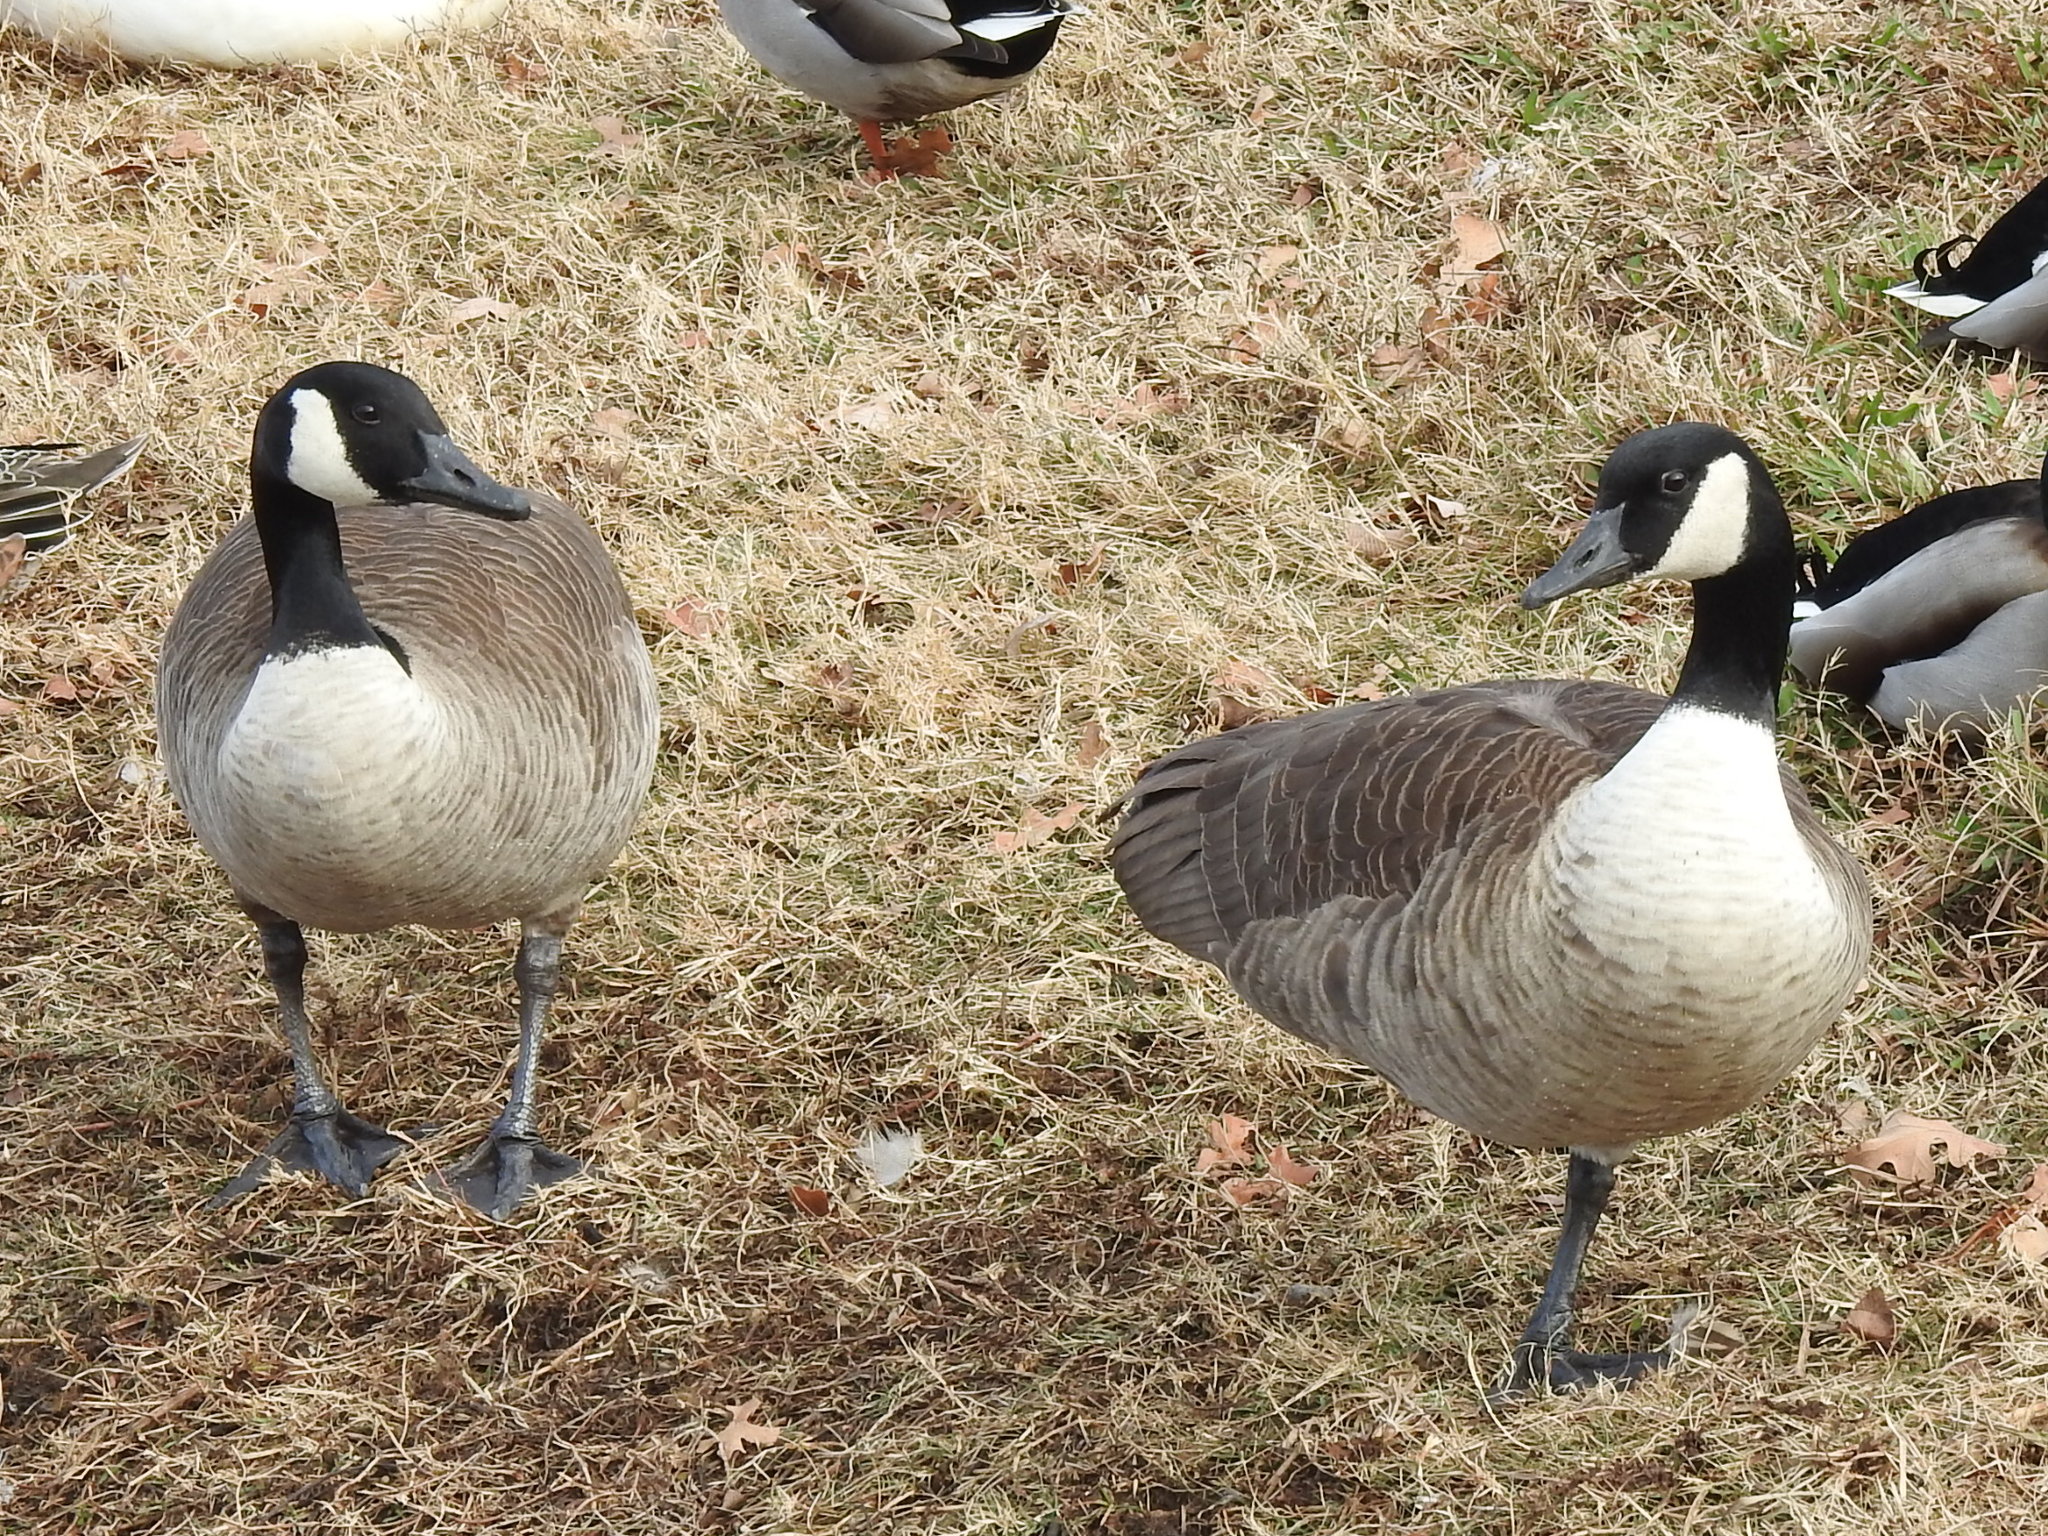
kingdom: Animalia
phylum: Chordata
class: Aves
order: Anseriformes
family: Anatidae
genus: Branta
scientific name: Branta canadensis
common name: Canada goose
